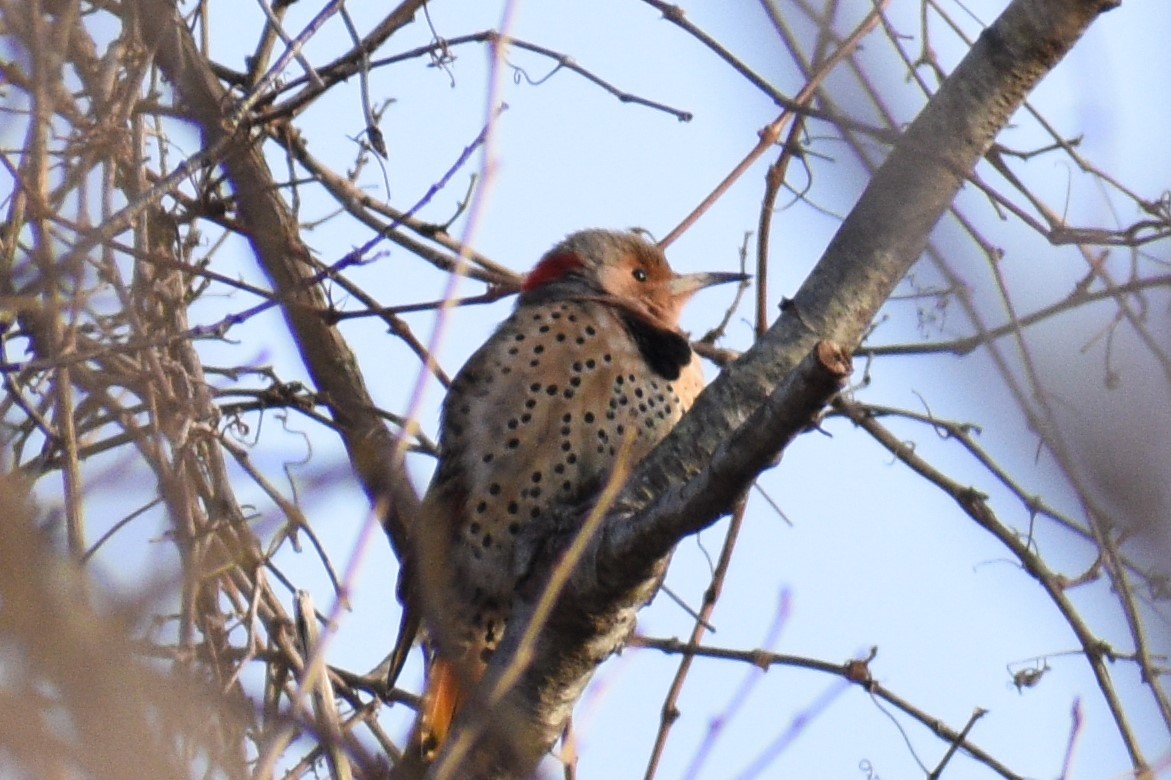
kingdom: Animalia
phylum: Chordata
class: Aves
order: Piciformes
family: Picidae
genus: Colaptes
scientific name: Colaptes auratus
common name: Northern flicker
